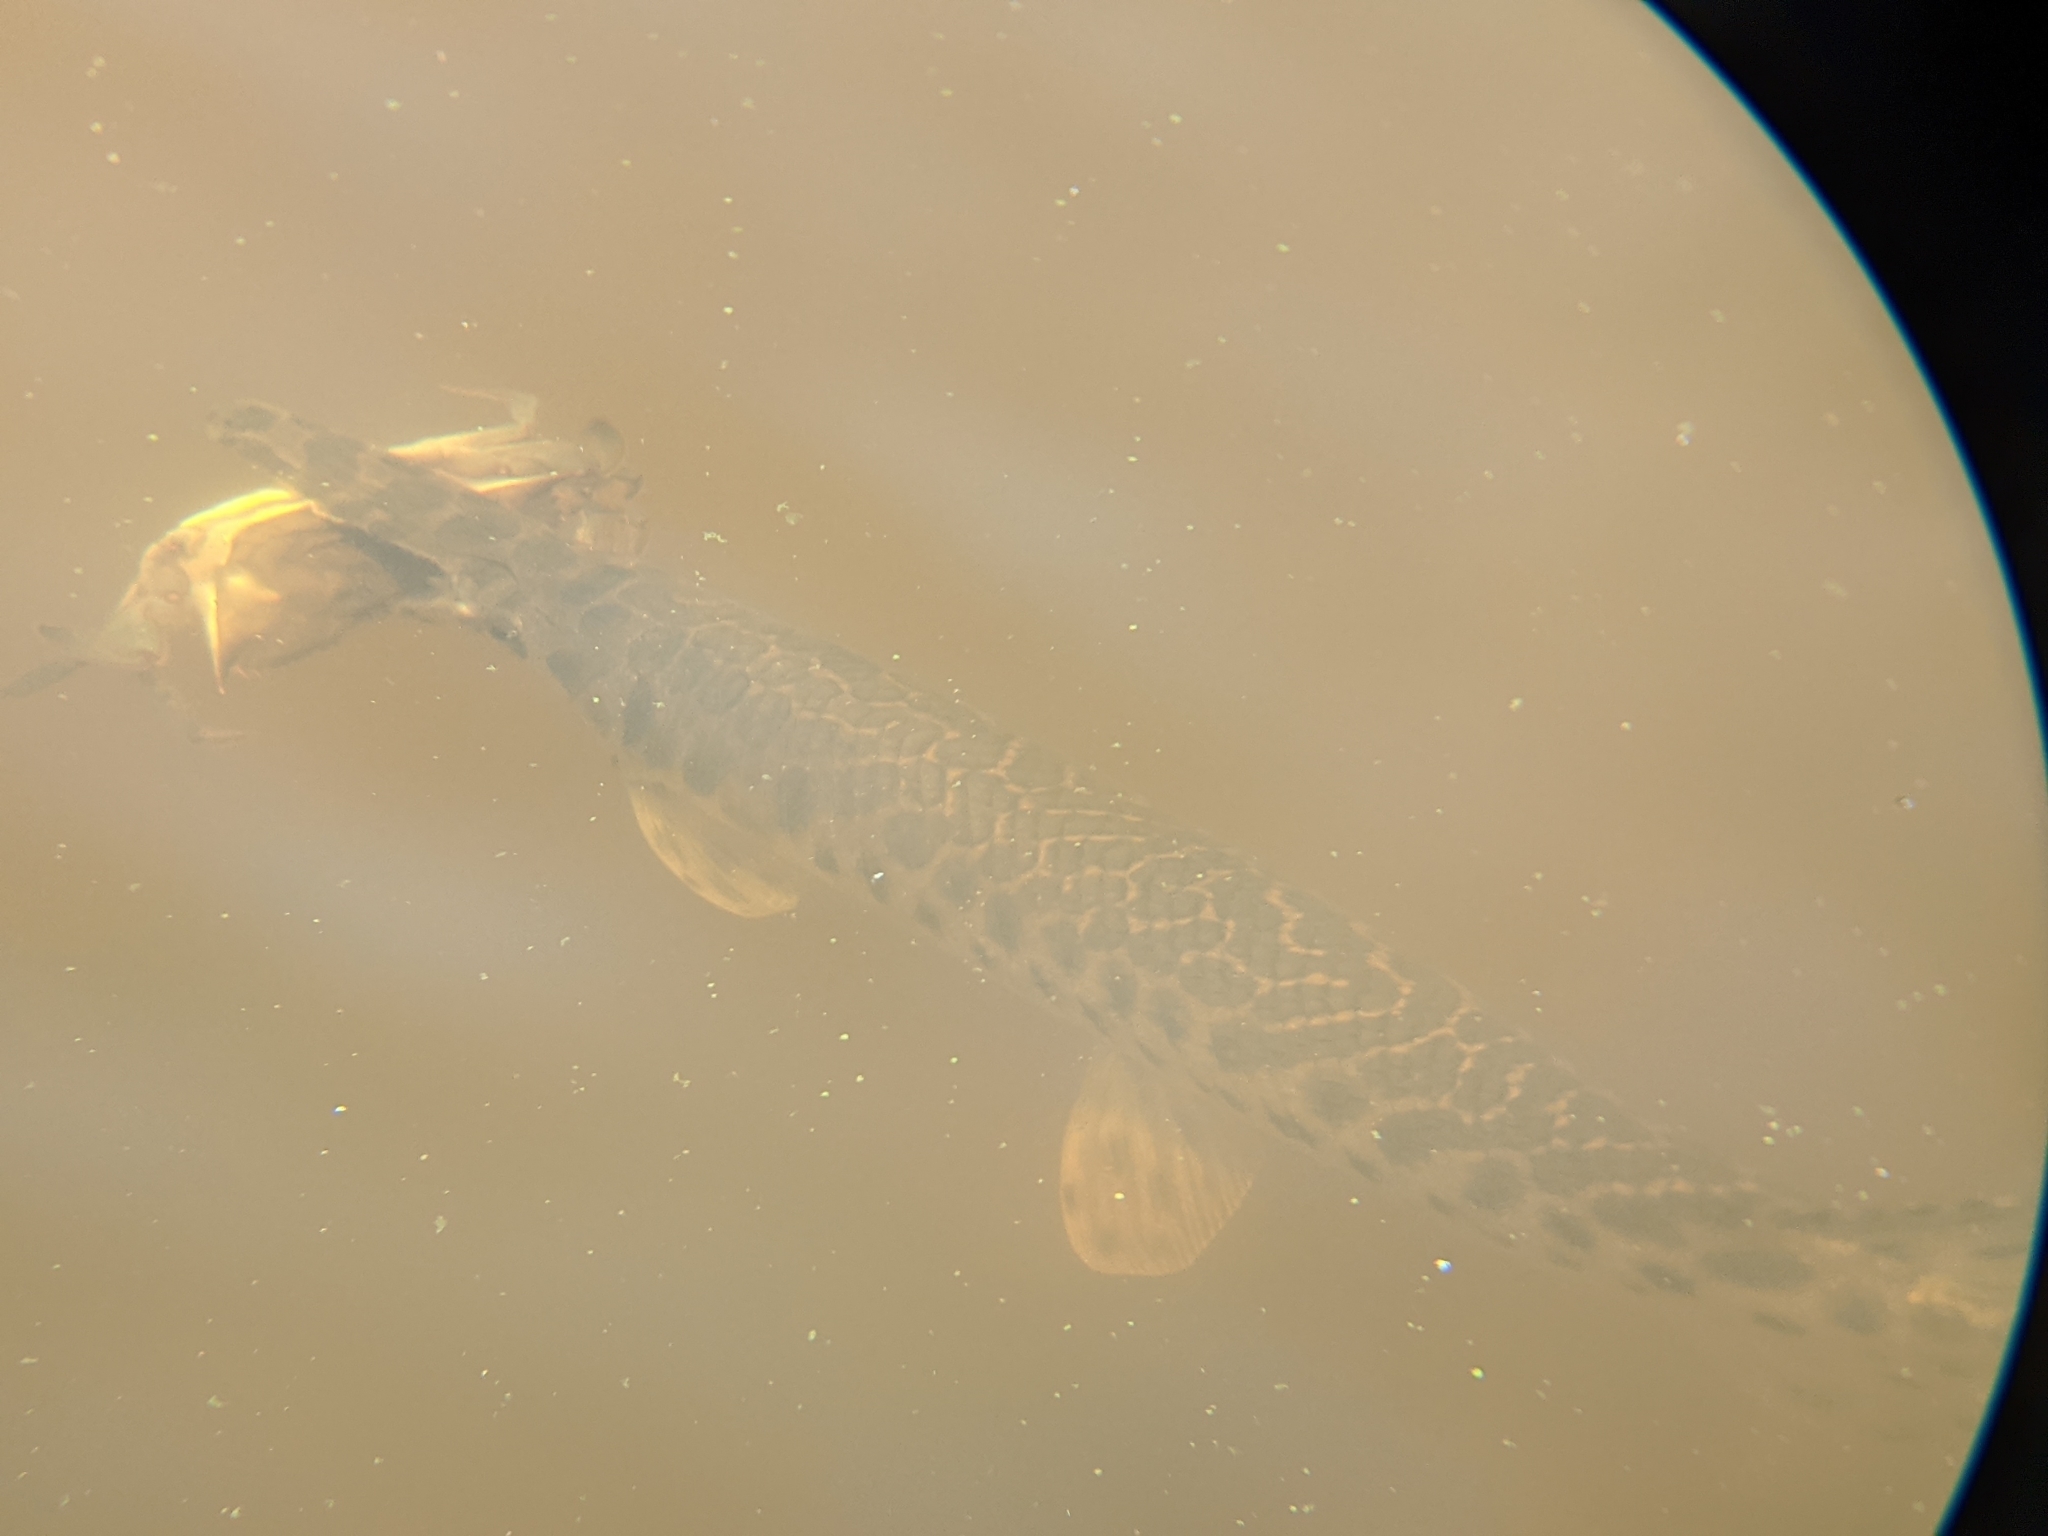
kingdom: Animalia
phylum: Chordata
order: Lepisosteiformes
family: Lepisosteidae
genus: Lepisosteus
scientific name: Lepisosteus oculatus
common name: Spotted gar
